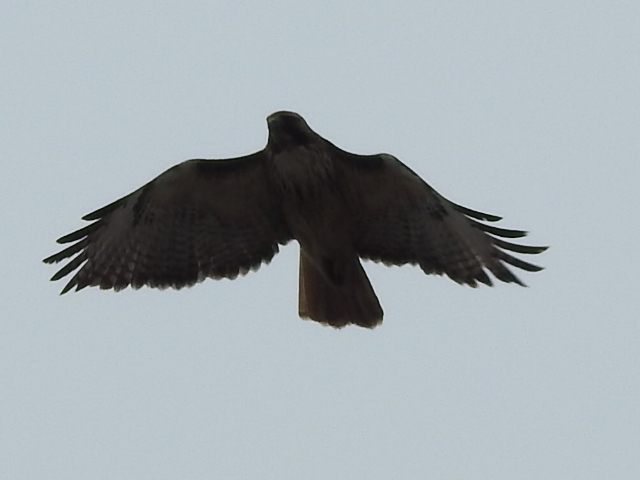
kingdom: Animalia
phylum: Chordata
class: Aves
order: Accipitriformes
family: Accipitridae
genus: Buteo
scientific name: Buteo jamaicensis
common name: Red-tailed hawk
